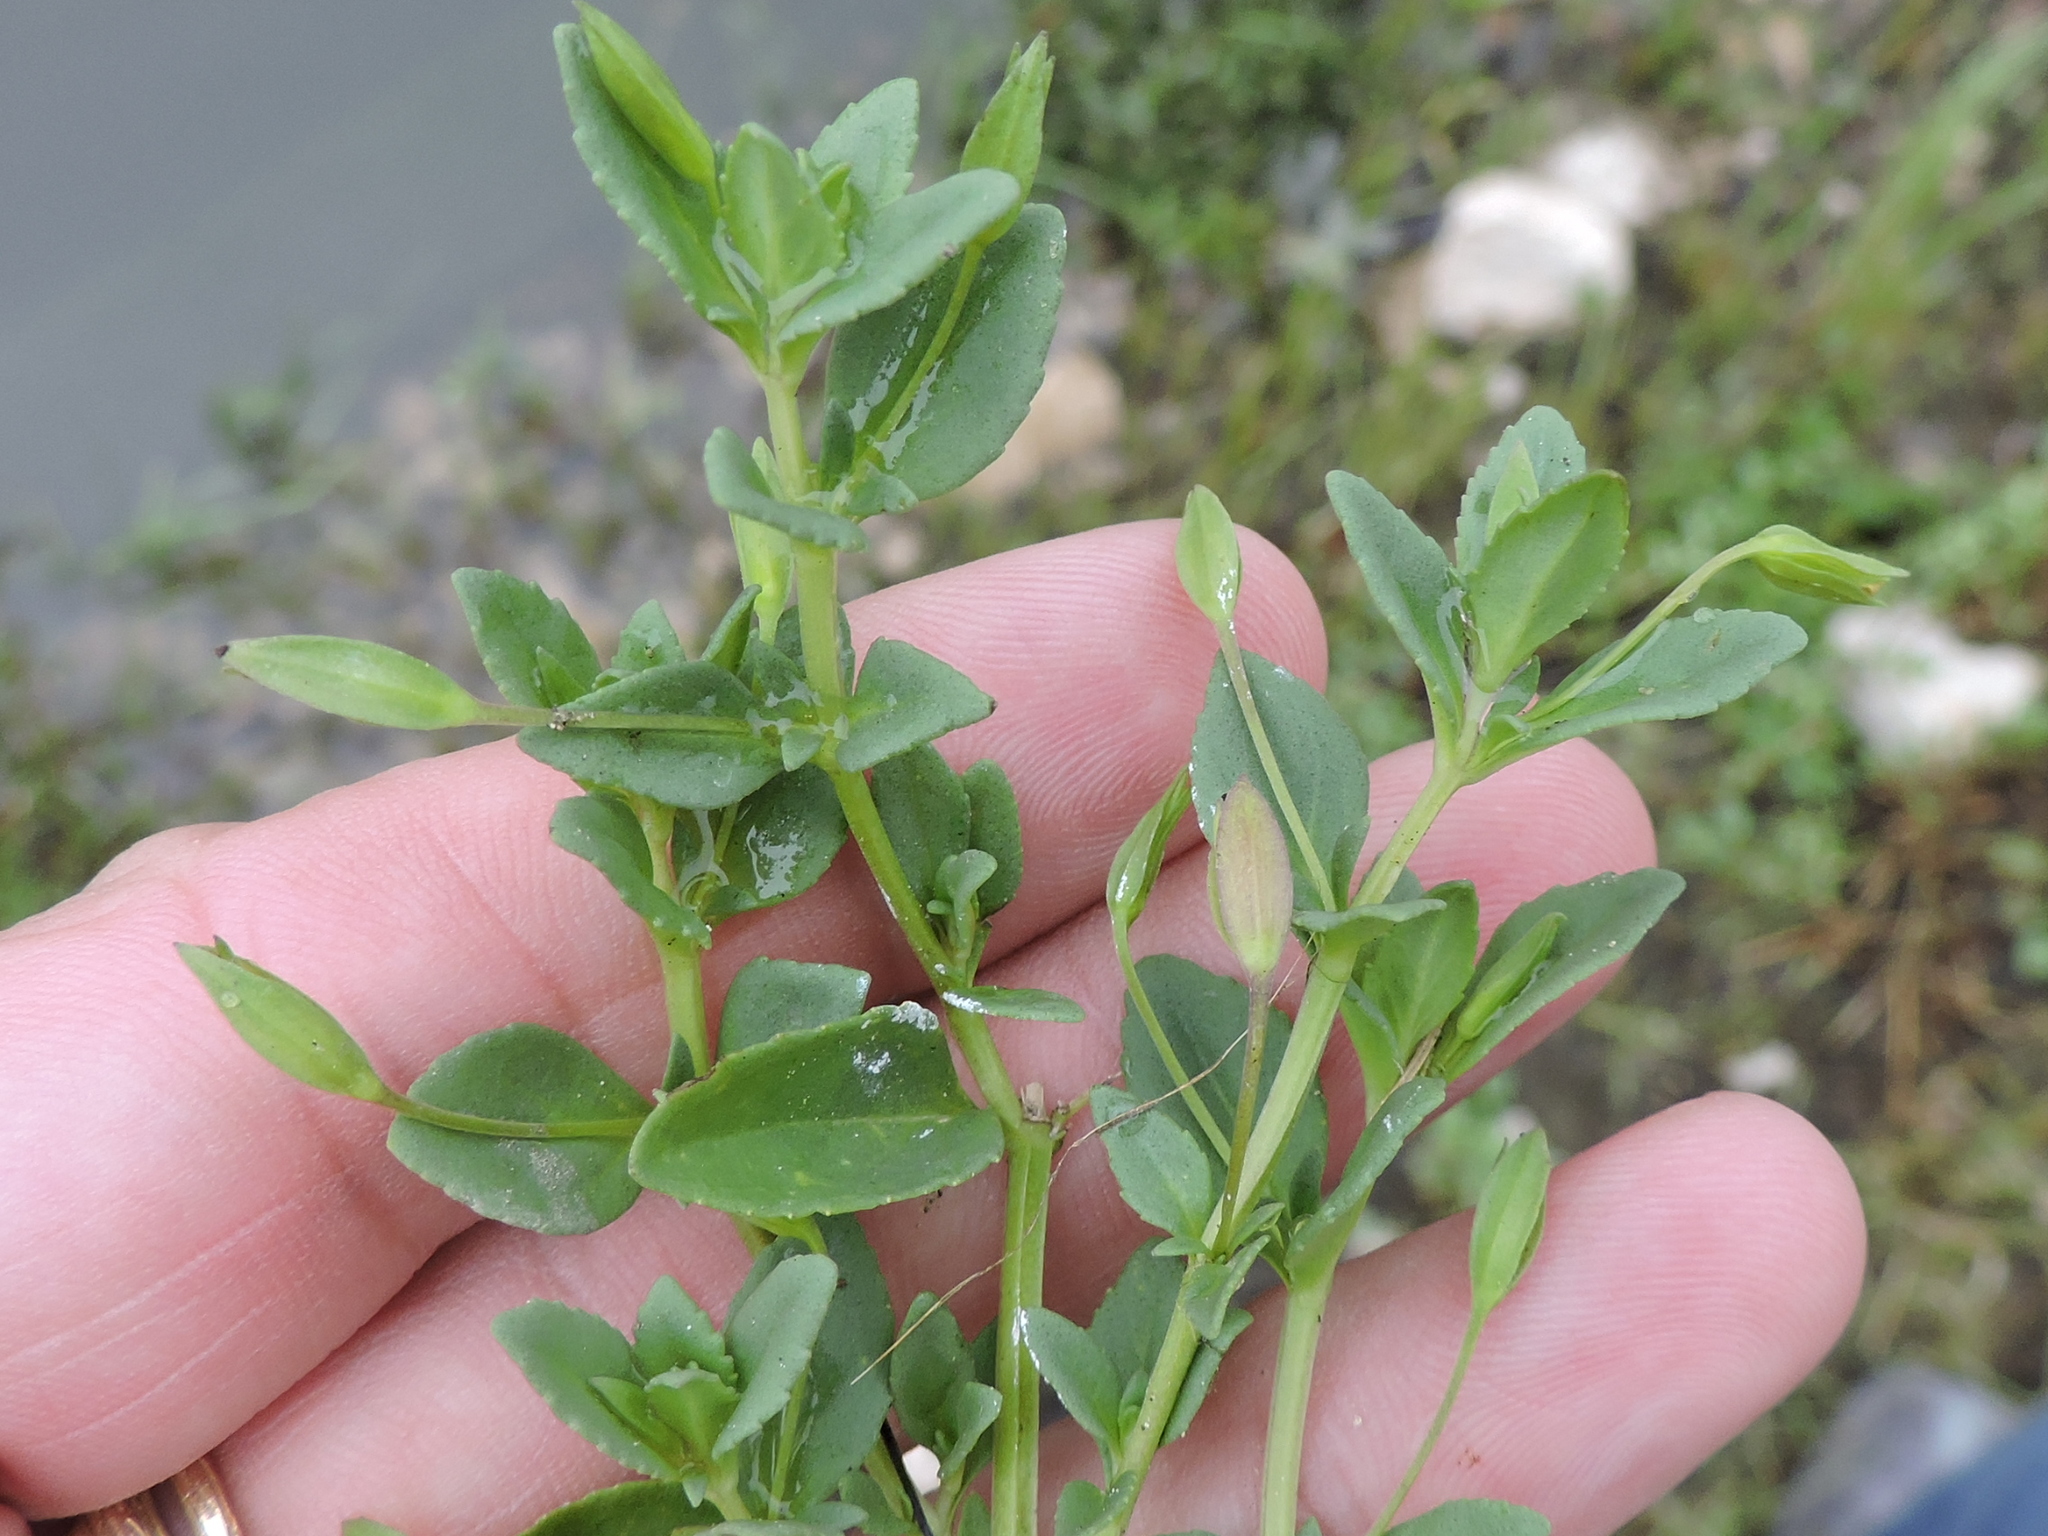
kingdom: Plantae
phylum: Tracheophyta
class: Magnoliopsida
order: Lamiales
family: Plantaginaceae
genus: Mecardonia
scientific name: Mecardonia procumbens
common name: Baby jump-up
